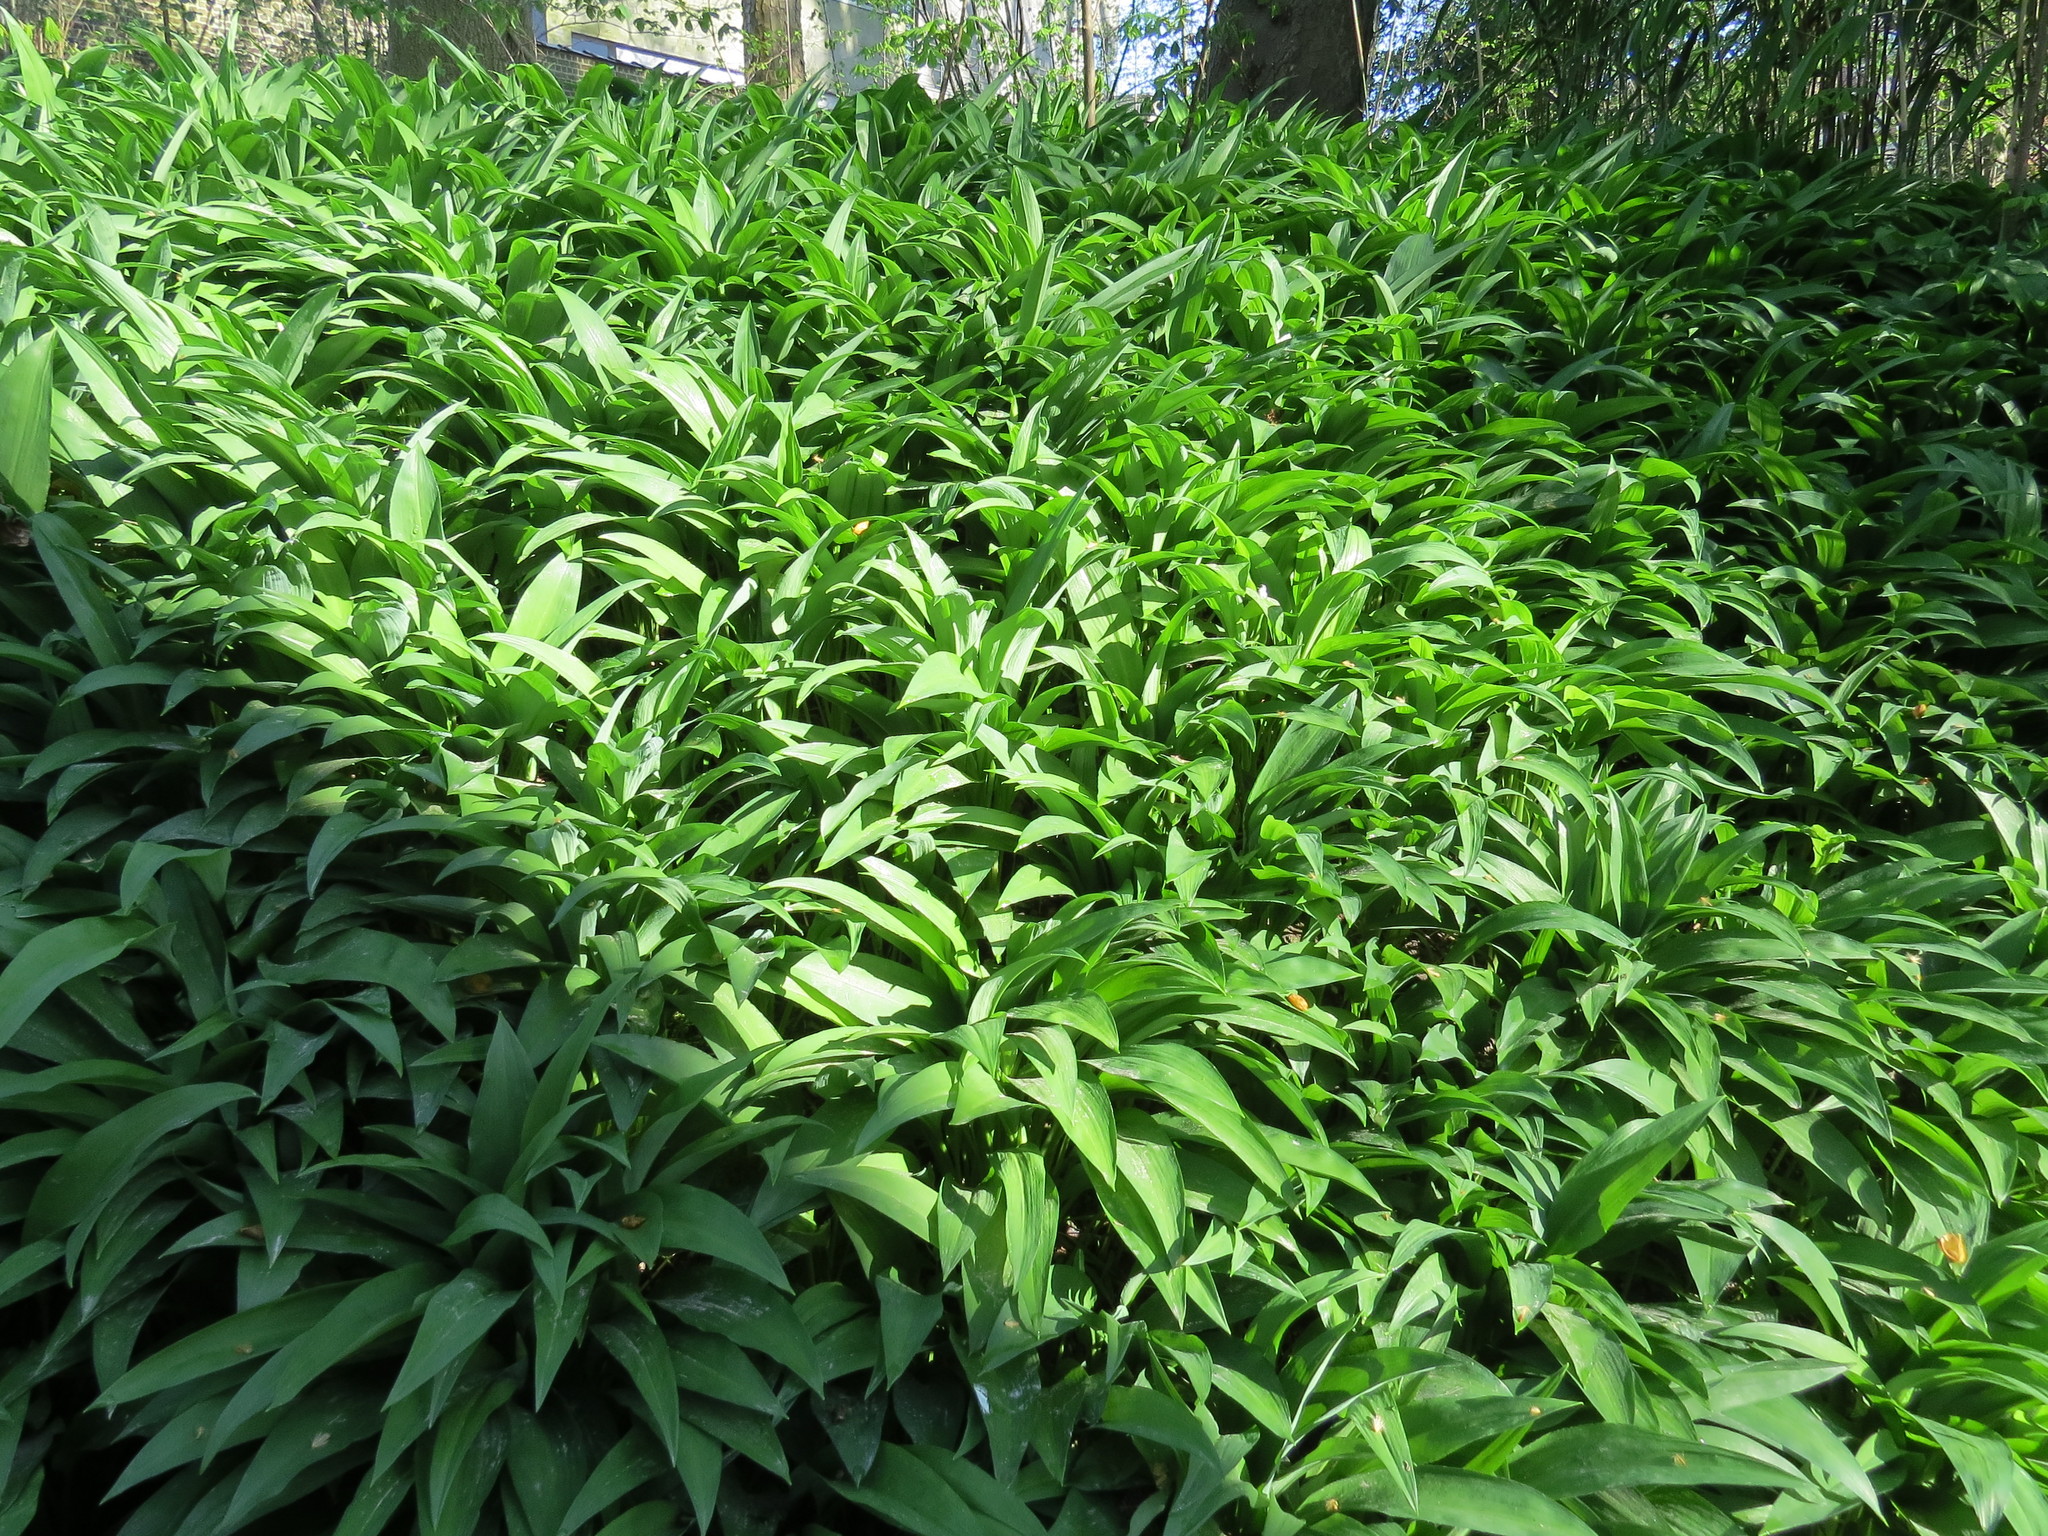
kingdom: Plantae
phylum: Tracheophyta
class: Liliopsida
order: Asparagales
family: Amaryllidaceae
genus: Allium
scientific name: Allium ursinum
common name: Ramsons
